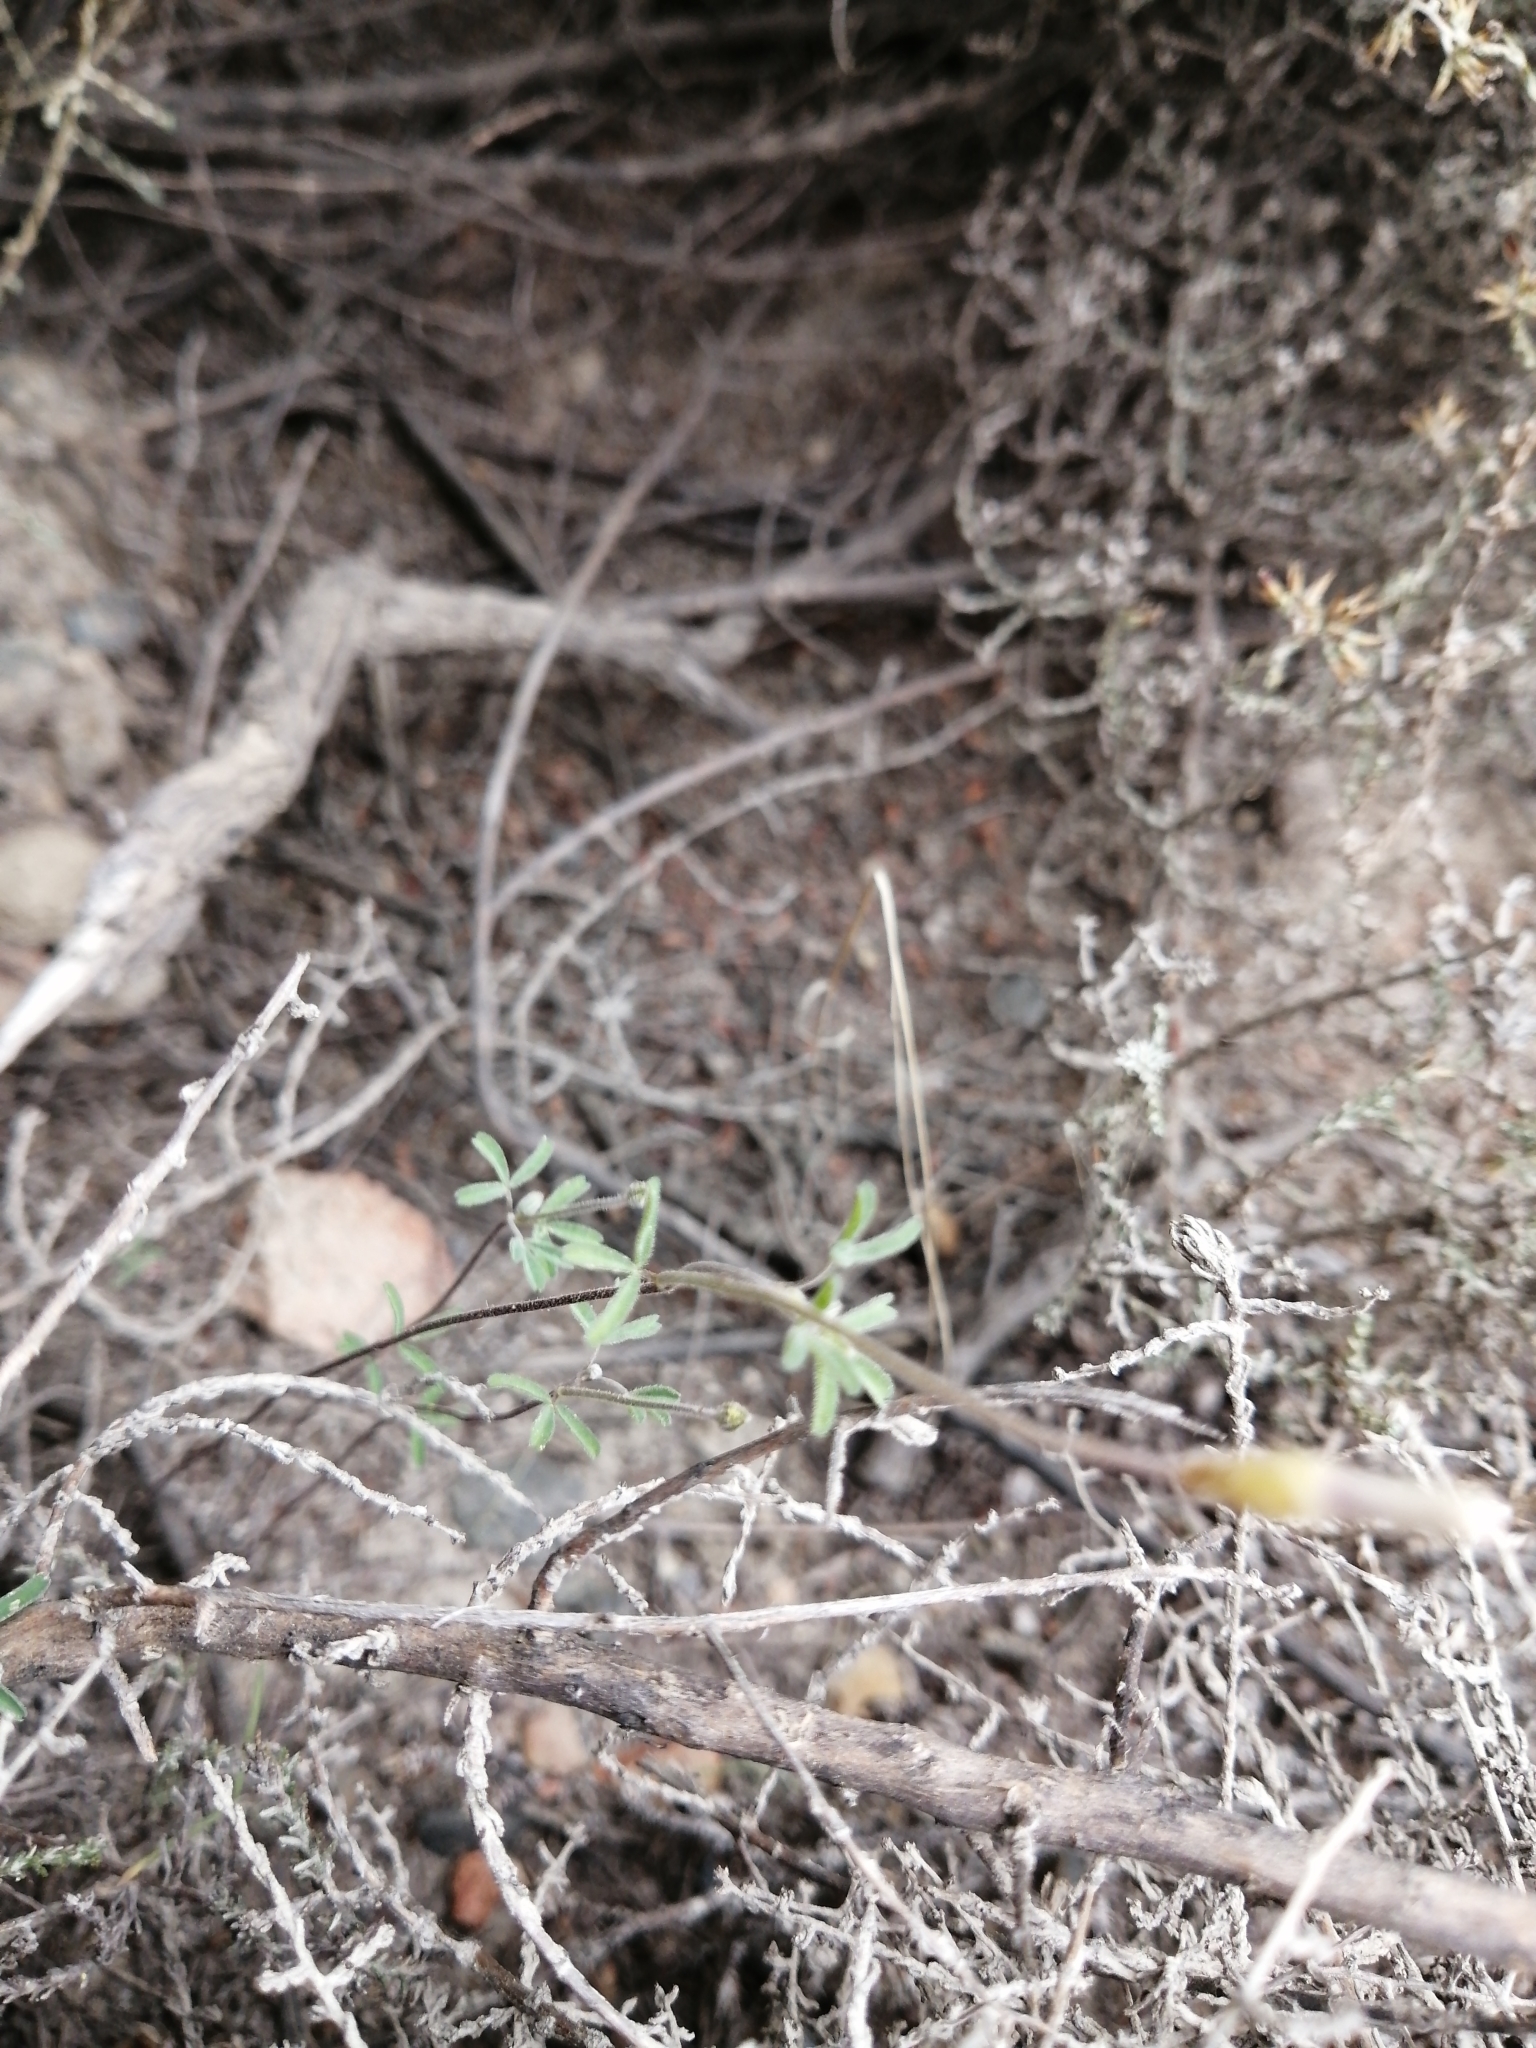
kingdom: Plantae
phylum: Tracheophyta
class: Magnoliopsida
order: Oxalidales
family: Oxalidaceae
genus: Oxalis
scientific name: Oxalis ciliaris
